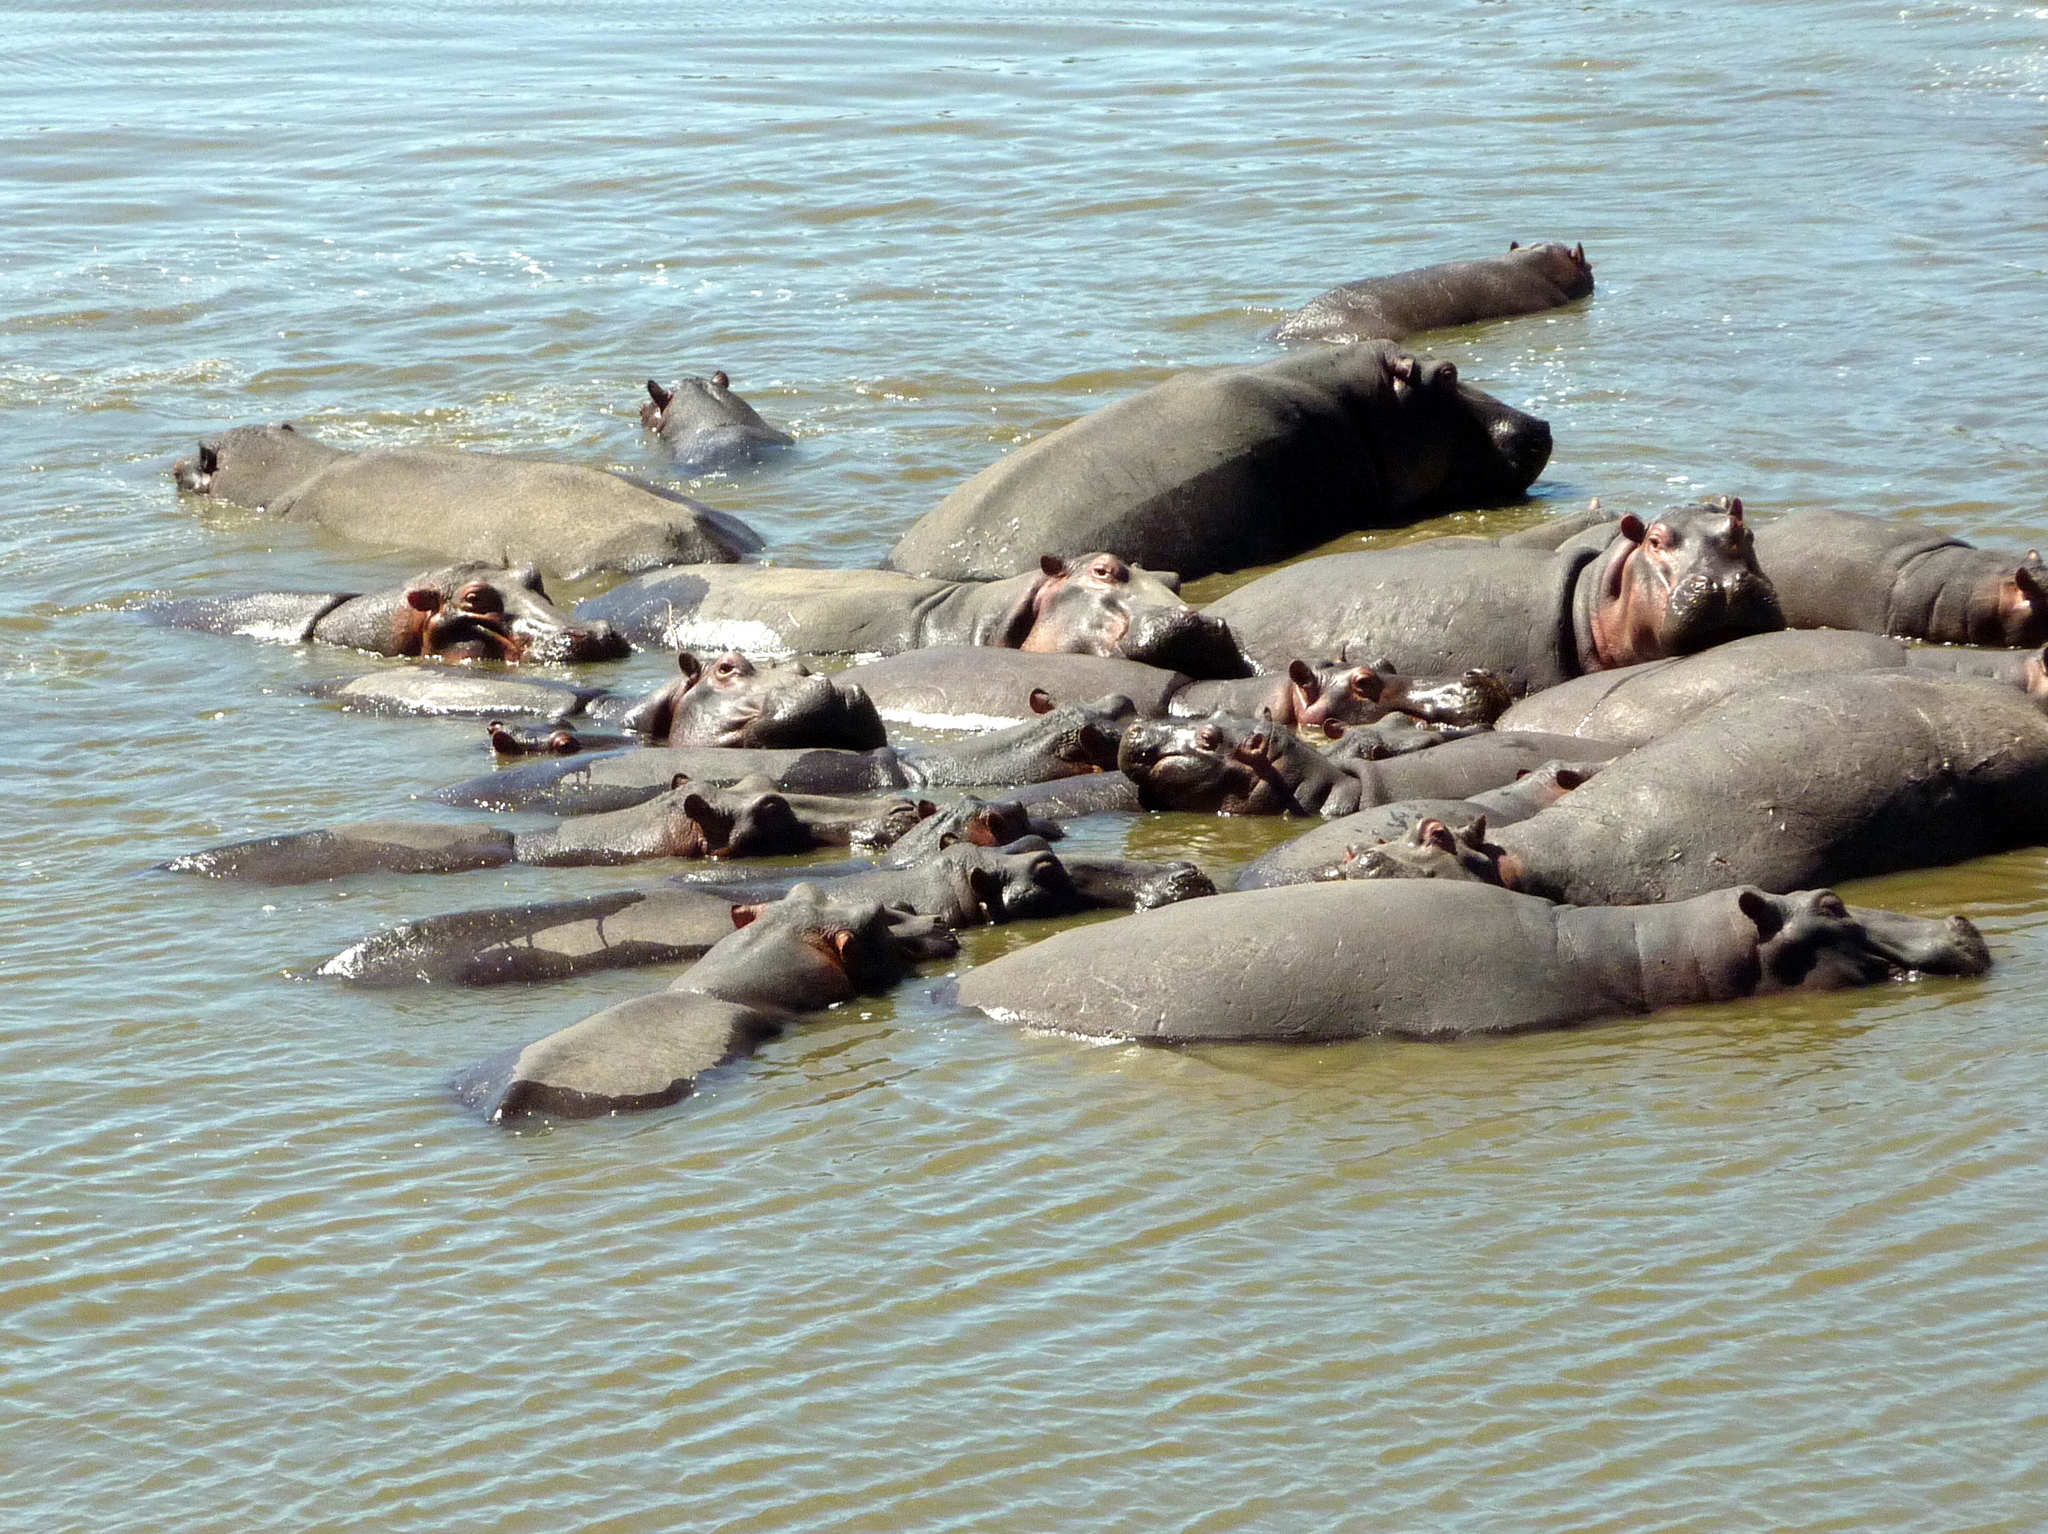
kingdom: Animalia
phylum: Chordata
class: Mammalia
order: Artiodactyla
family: Hippopotamidae
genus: Hippopotamus
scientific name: Hippopotamus amphibius
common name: Common hippopotamus
